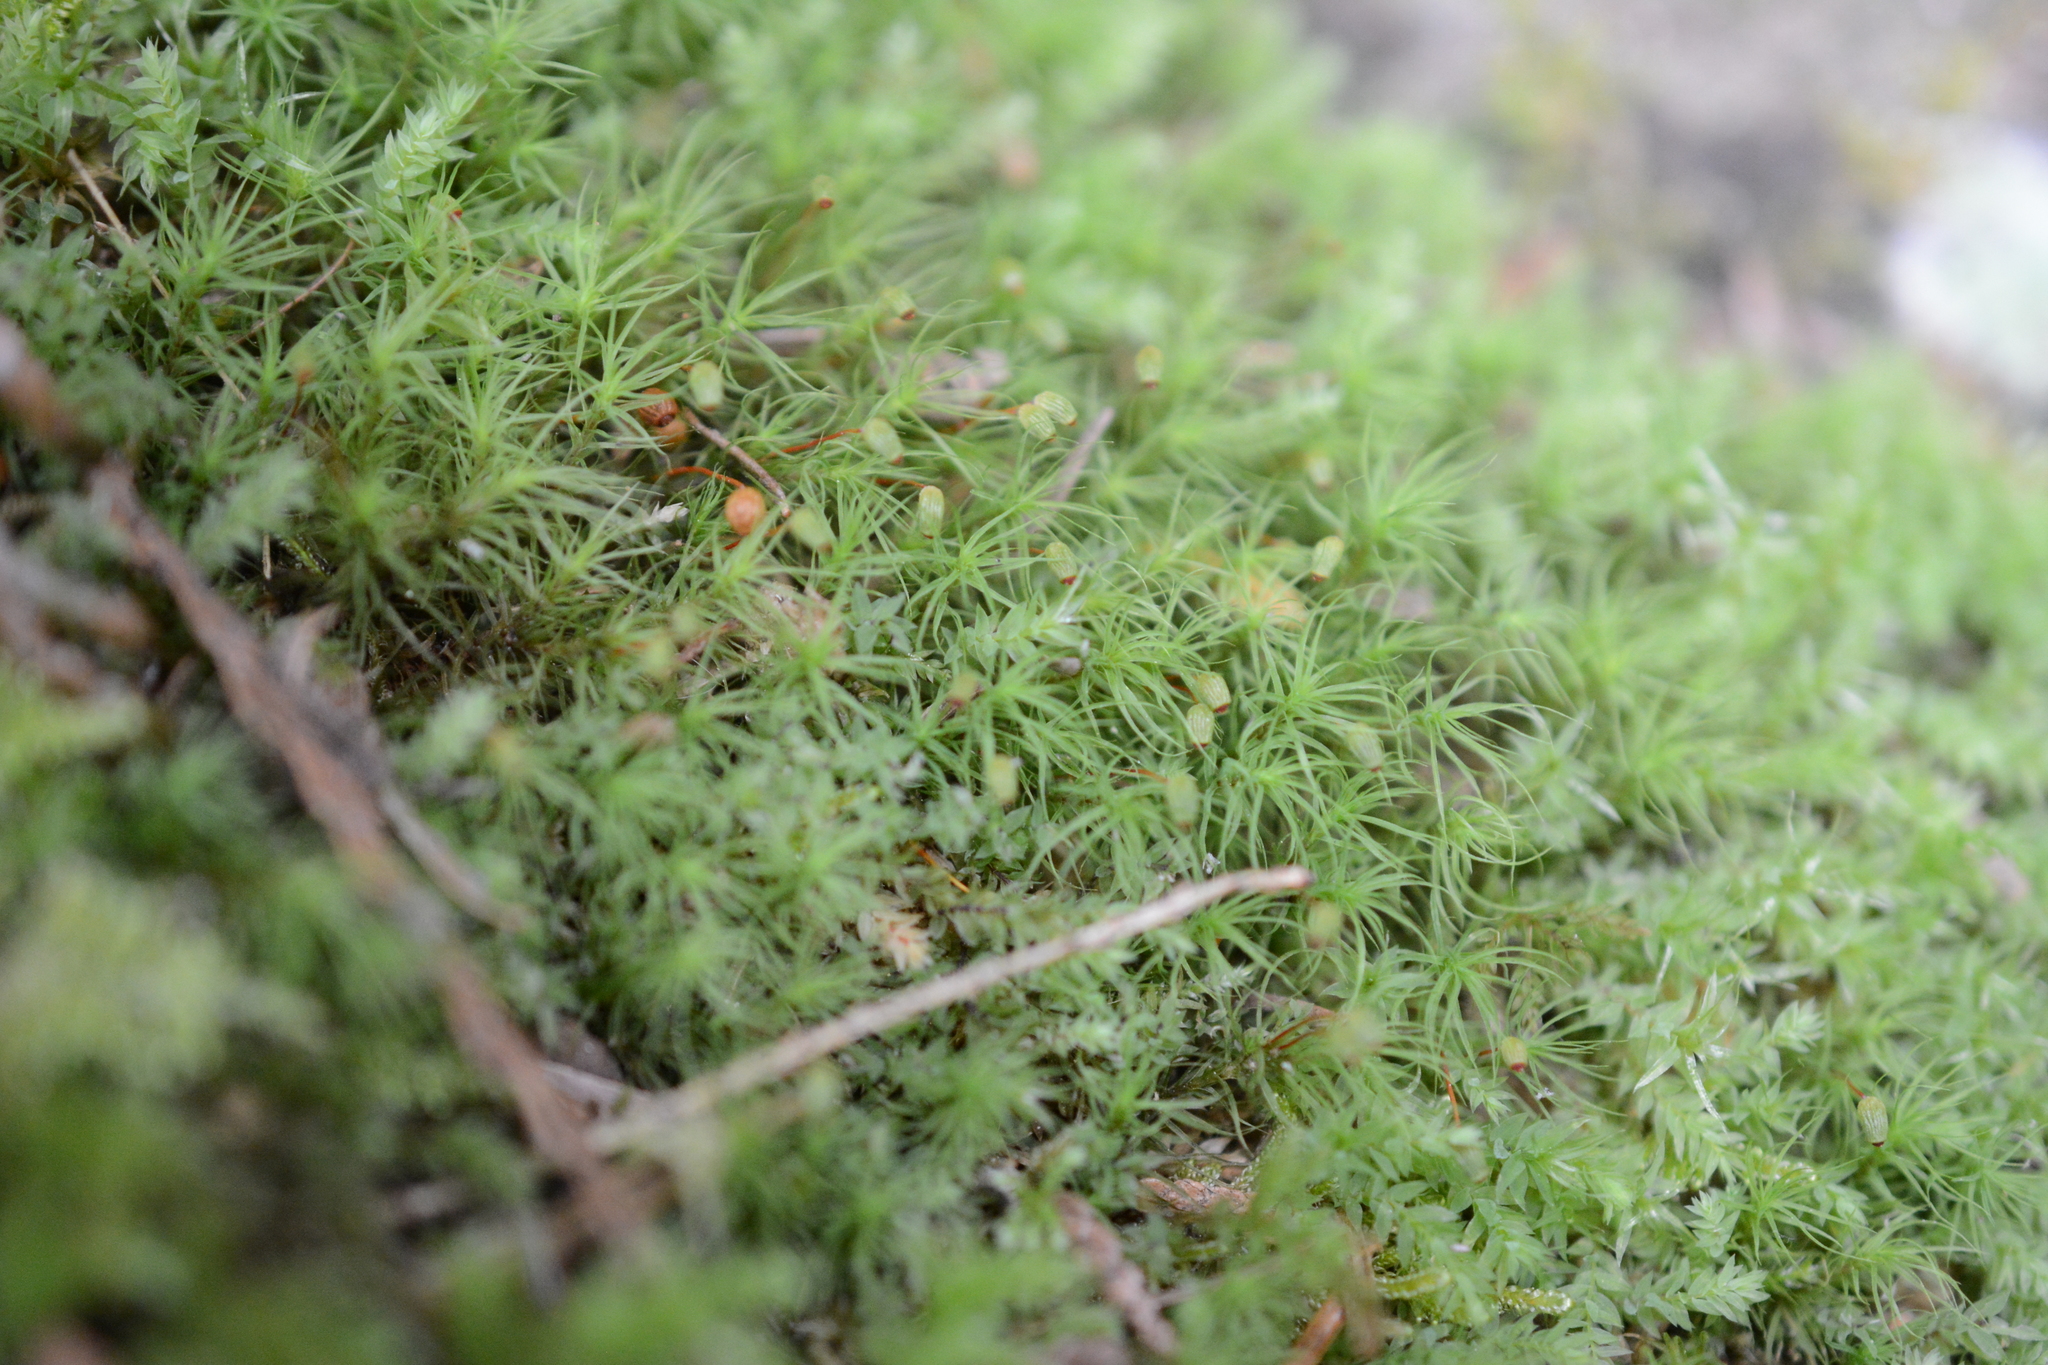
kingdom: Plantae
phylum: Bryophyta
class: Bryopsida
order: Bartramiales
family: Bartramiaceae
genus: Bartramia
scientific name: Bartramia ithyphylla
